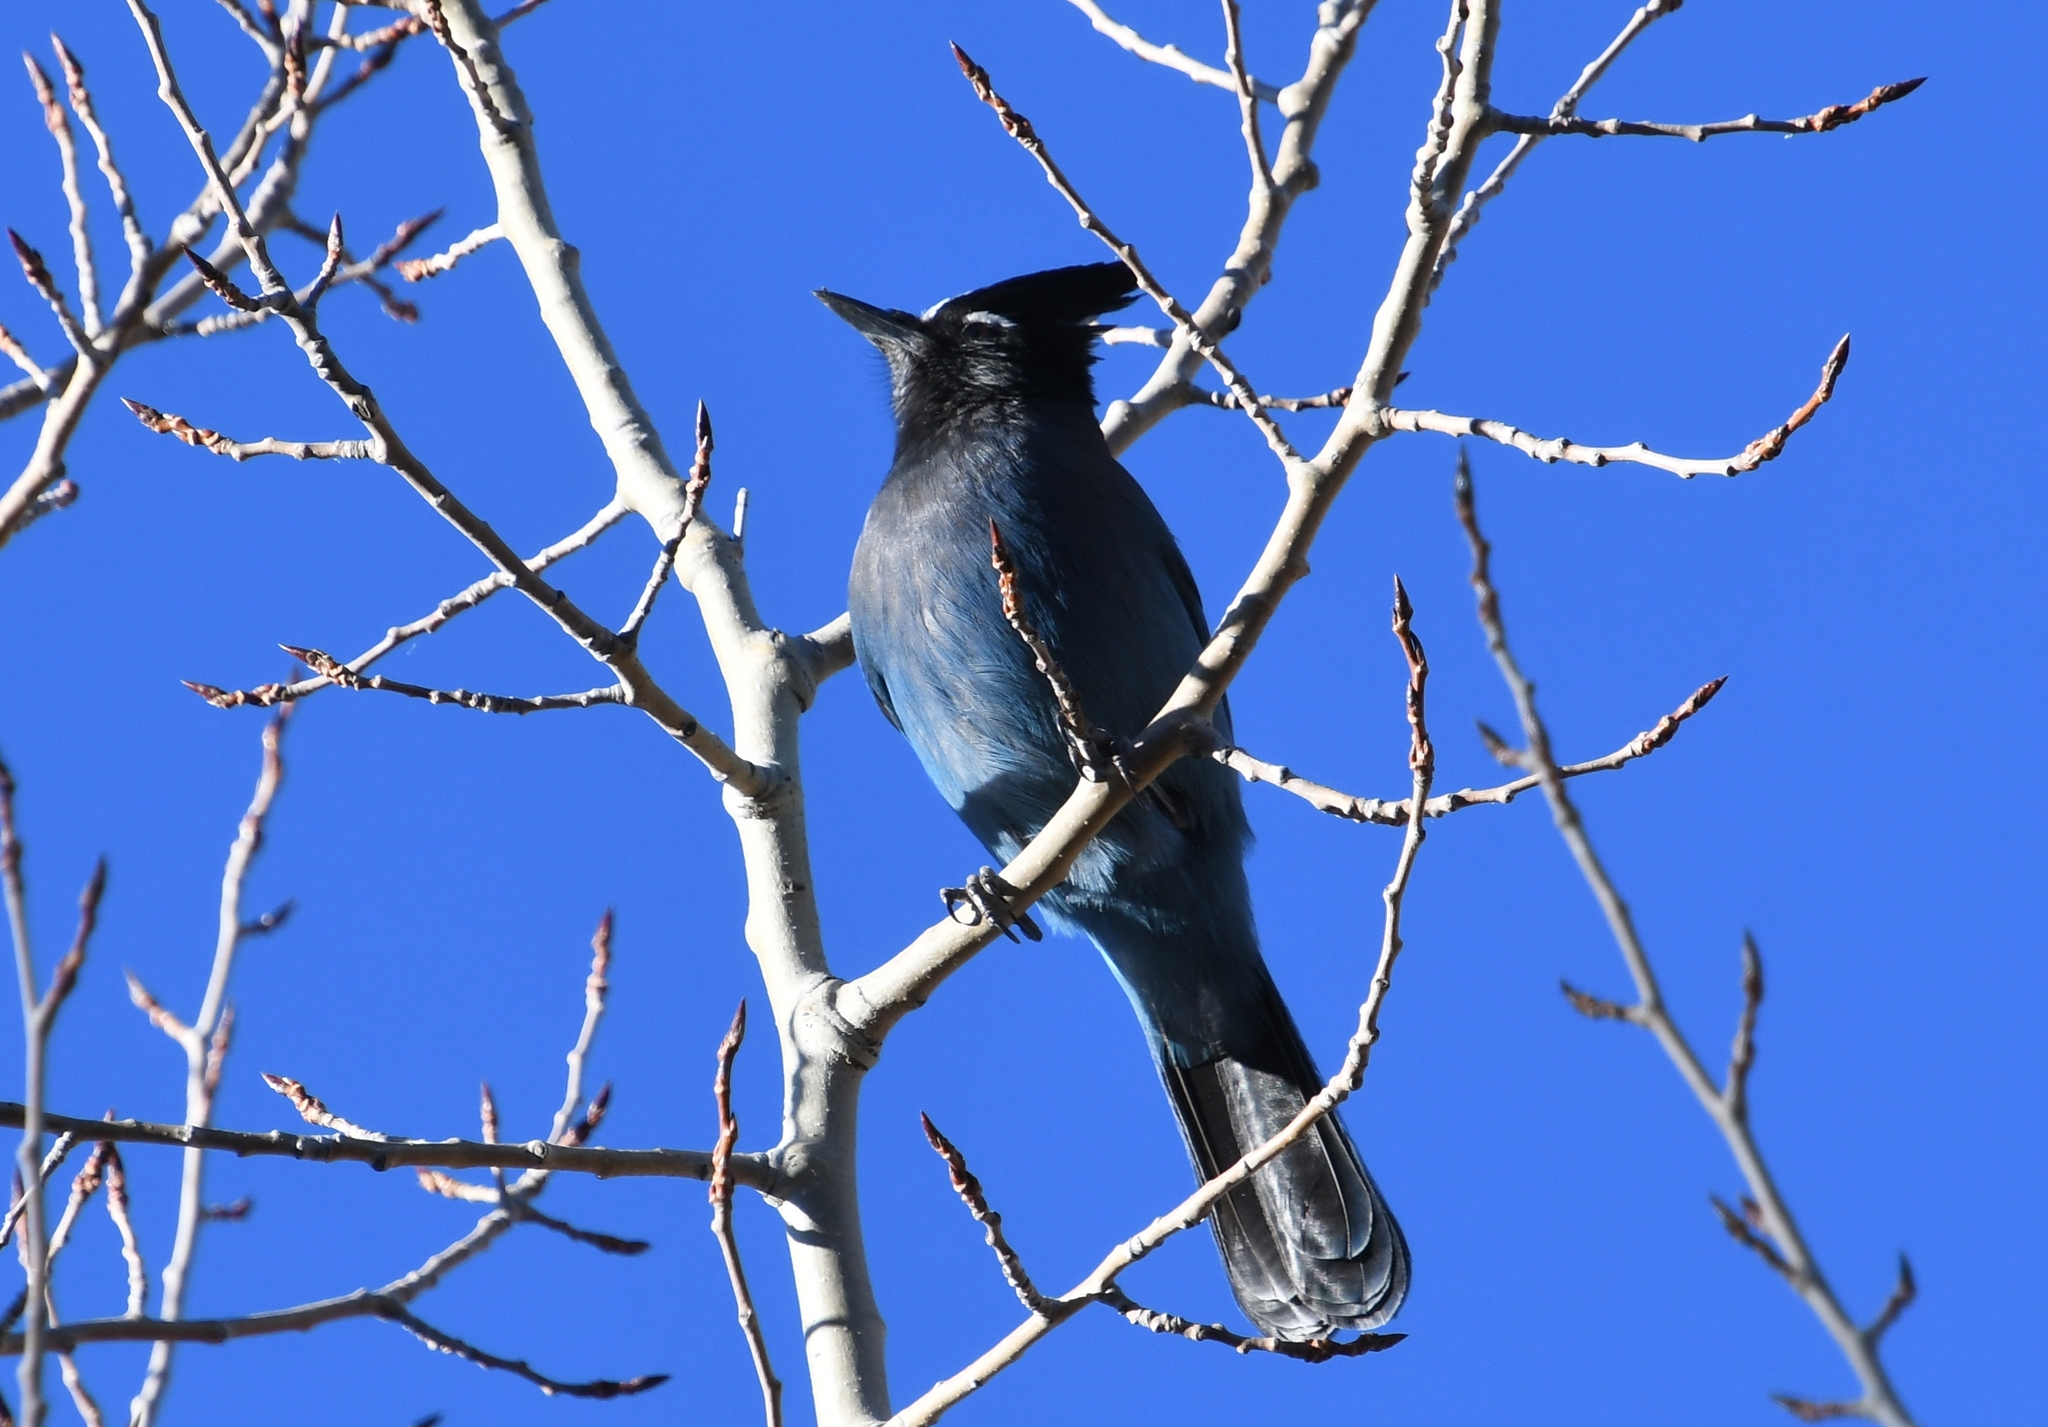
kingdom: Animalia
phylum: Chordata
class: Aves
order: Passeriformes
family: Corvidae
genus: Cyanocitta
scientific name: Cyanocitta stelleri
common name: Steller's jay
